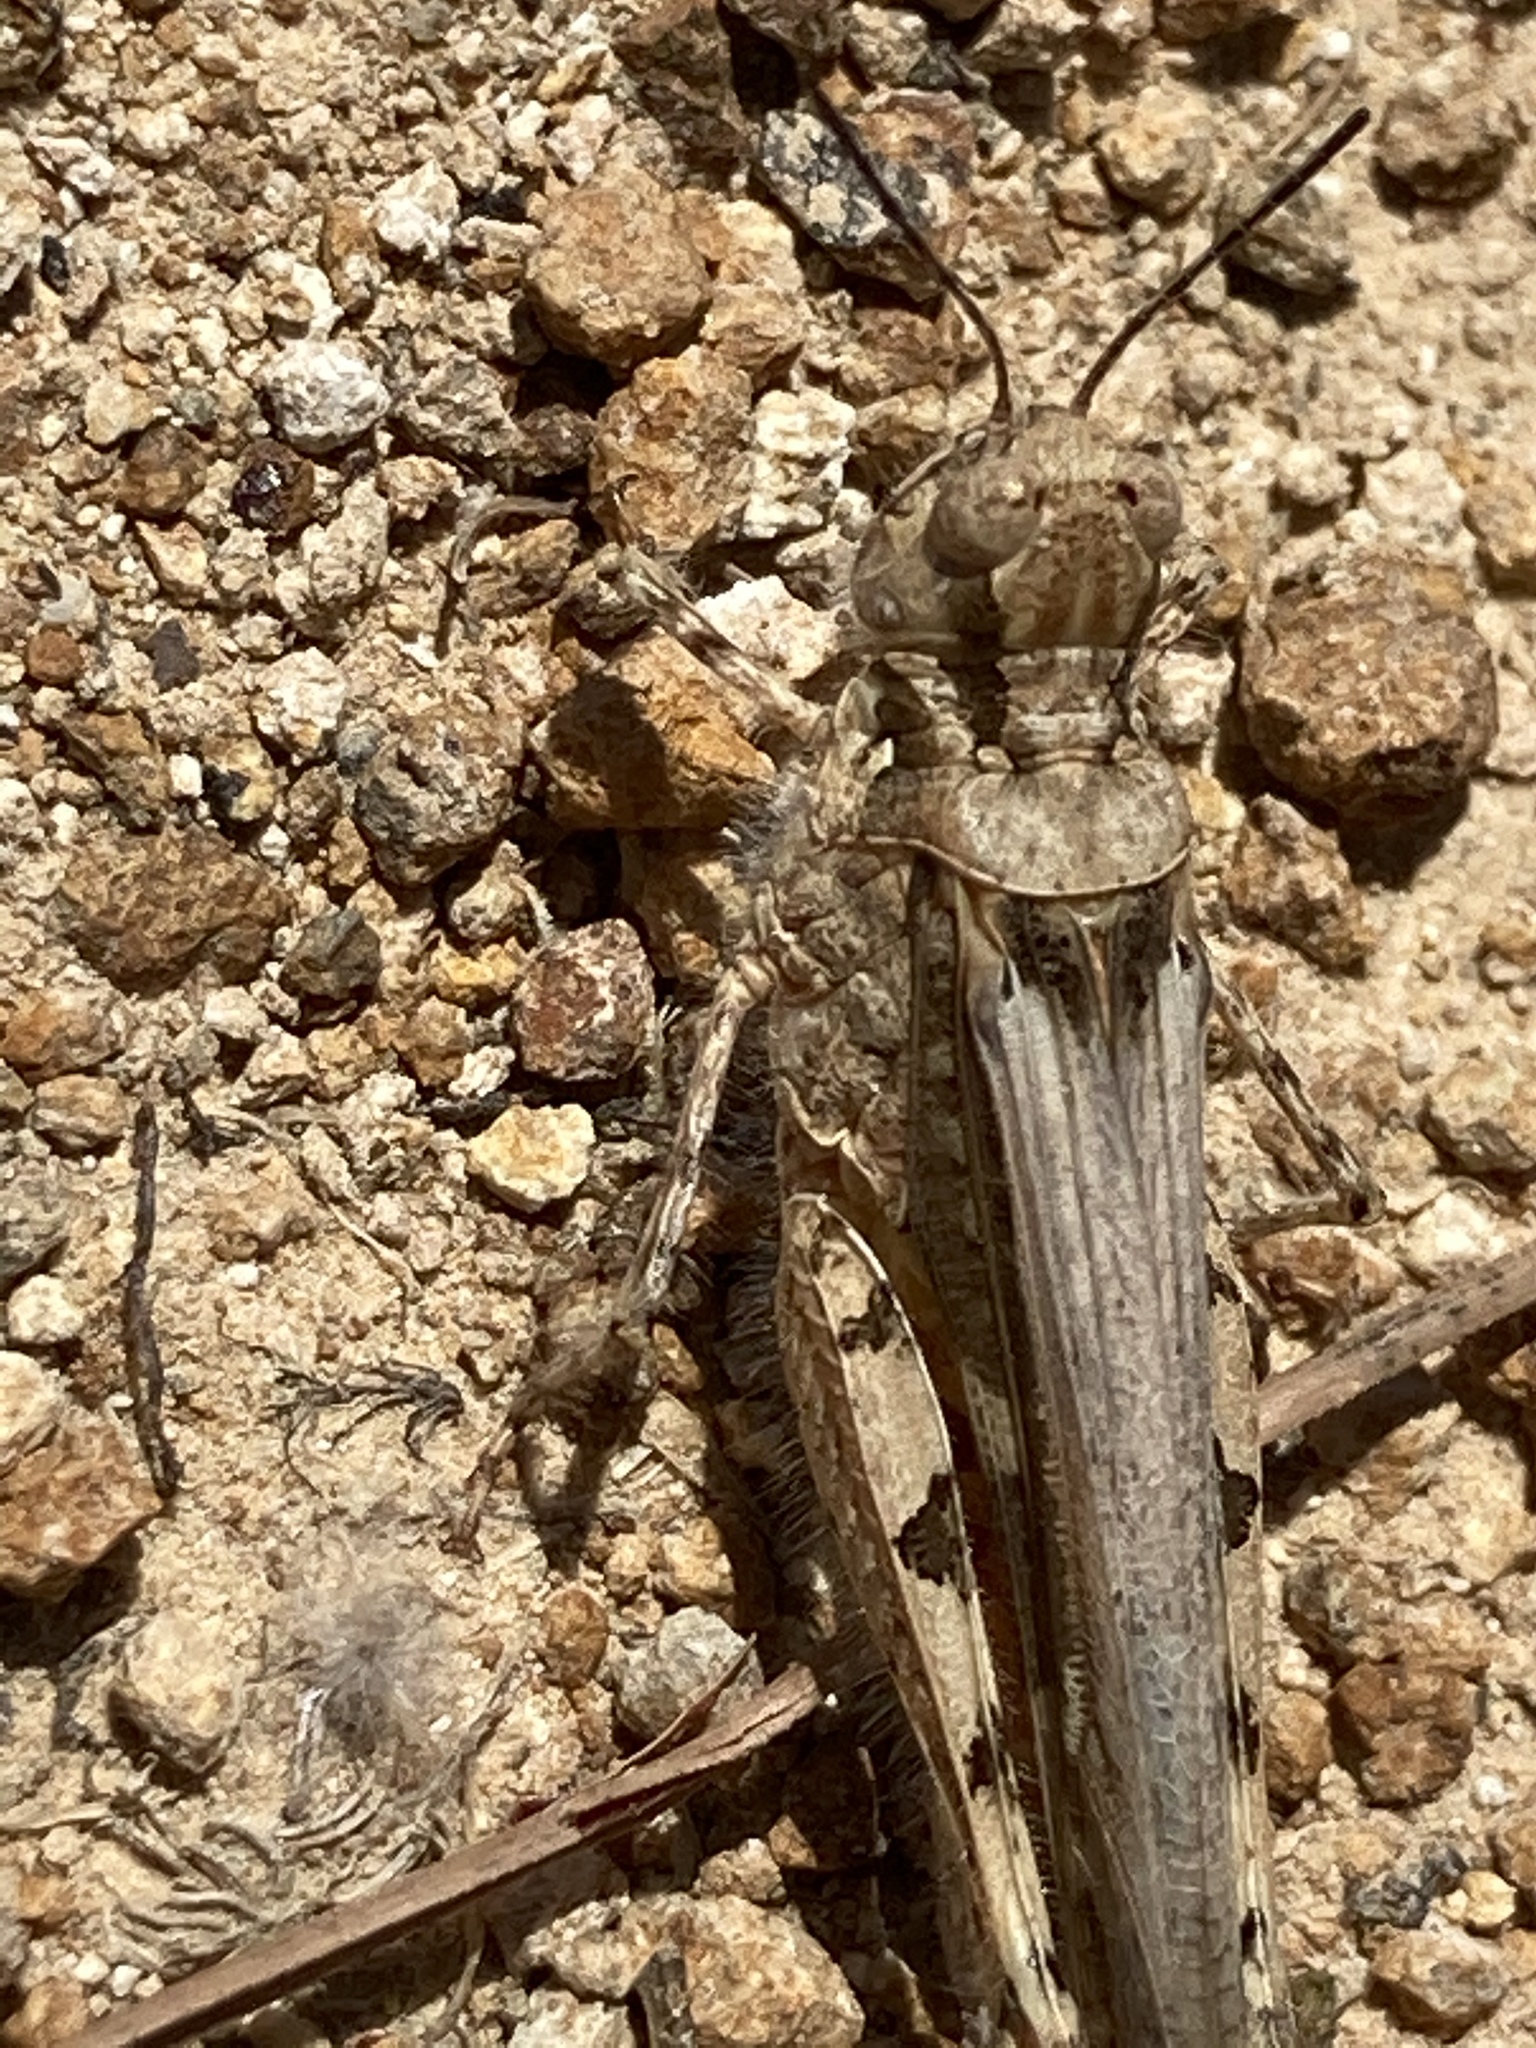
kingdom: Animalia
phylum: Arthropoda
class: Insecta
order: Orthoptera
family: Acrididae
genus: Acrotylus
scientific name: Acrotylus patruelis
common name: Slender burrowing grasshopper
